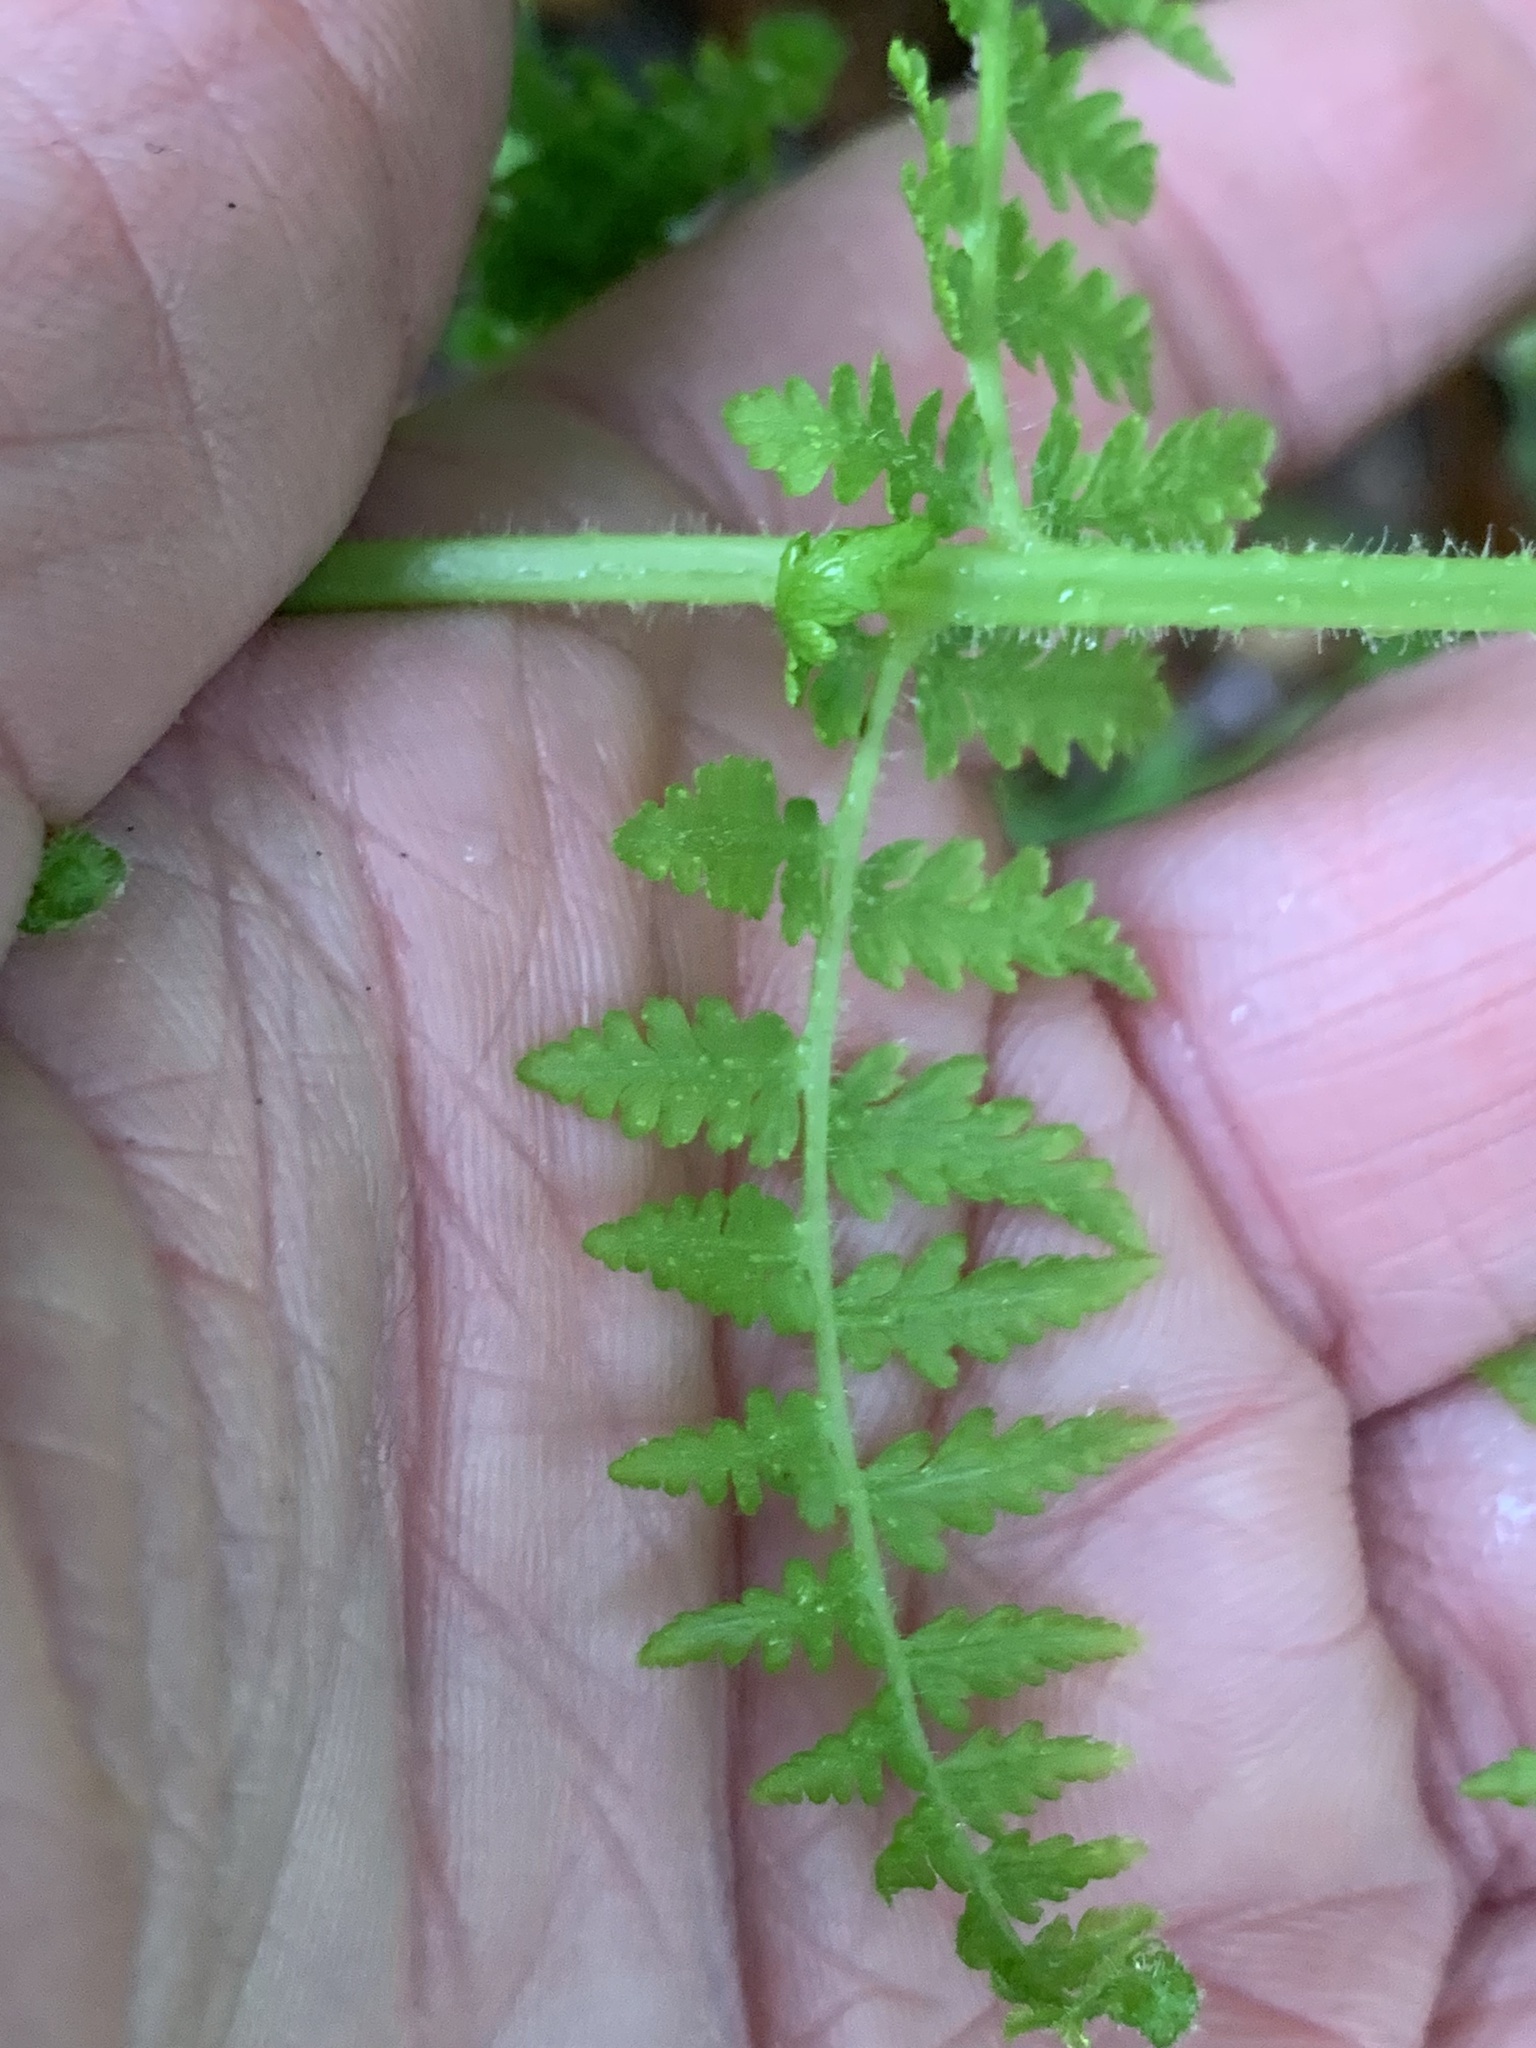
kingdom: Plantae
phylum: Tracheophyta
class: Polypodiopsida
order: Polypodiales
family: Dennstaedtiaceae
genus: Sitobolium
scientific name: Sitobolium punctilobum
